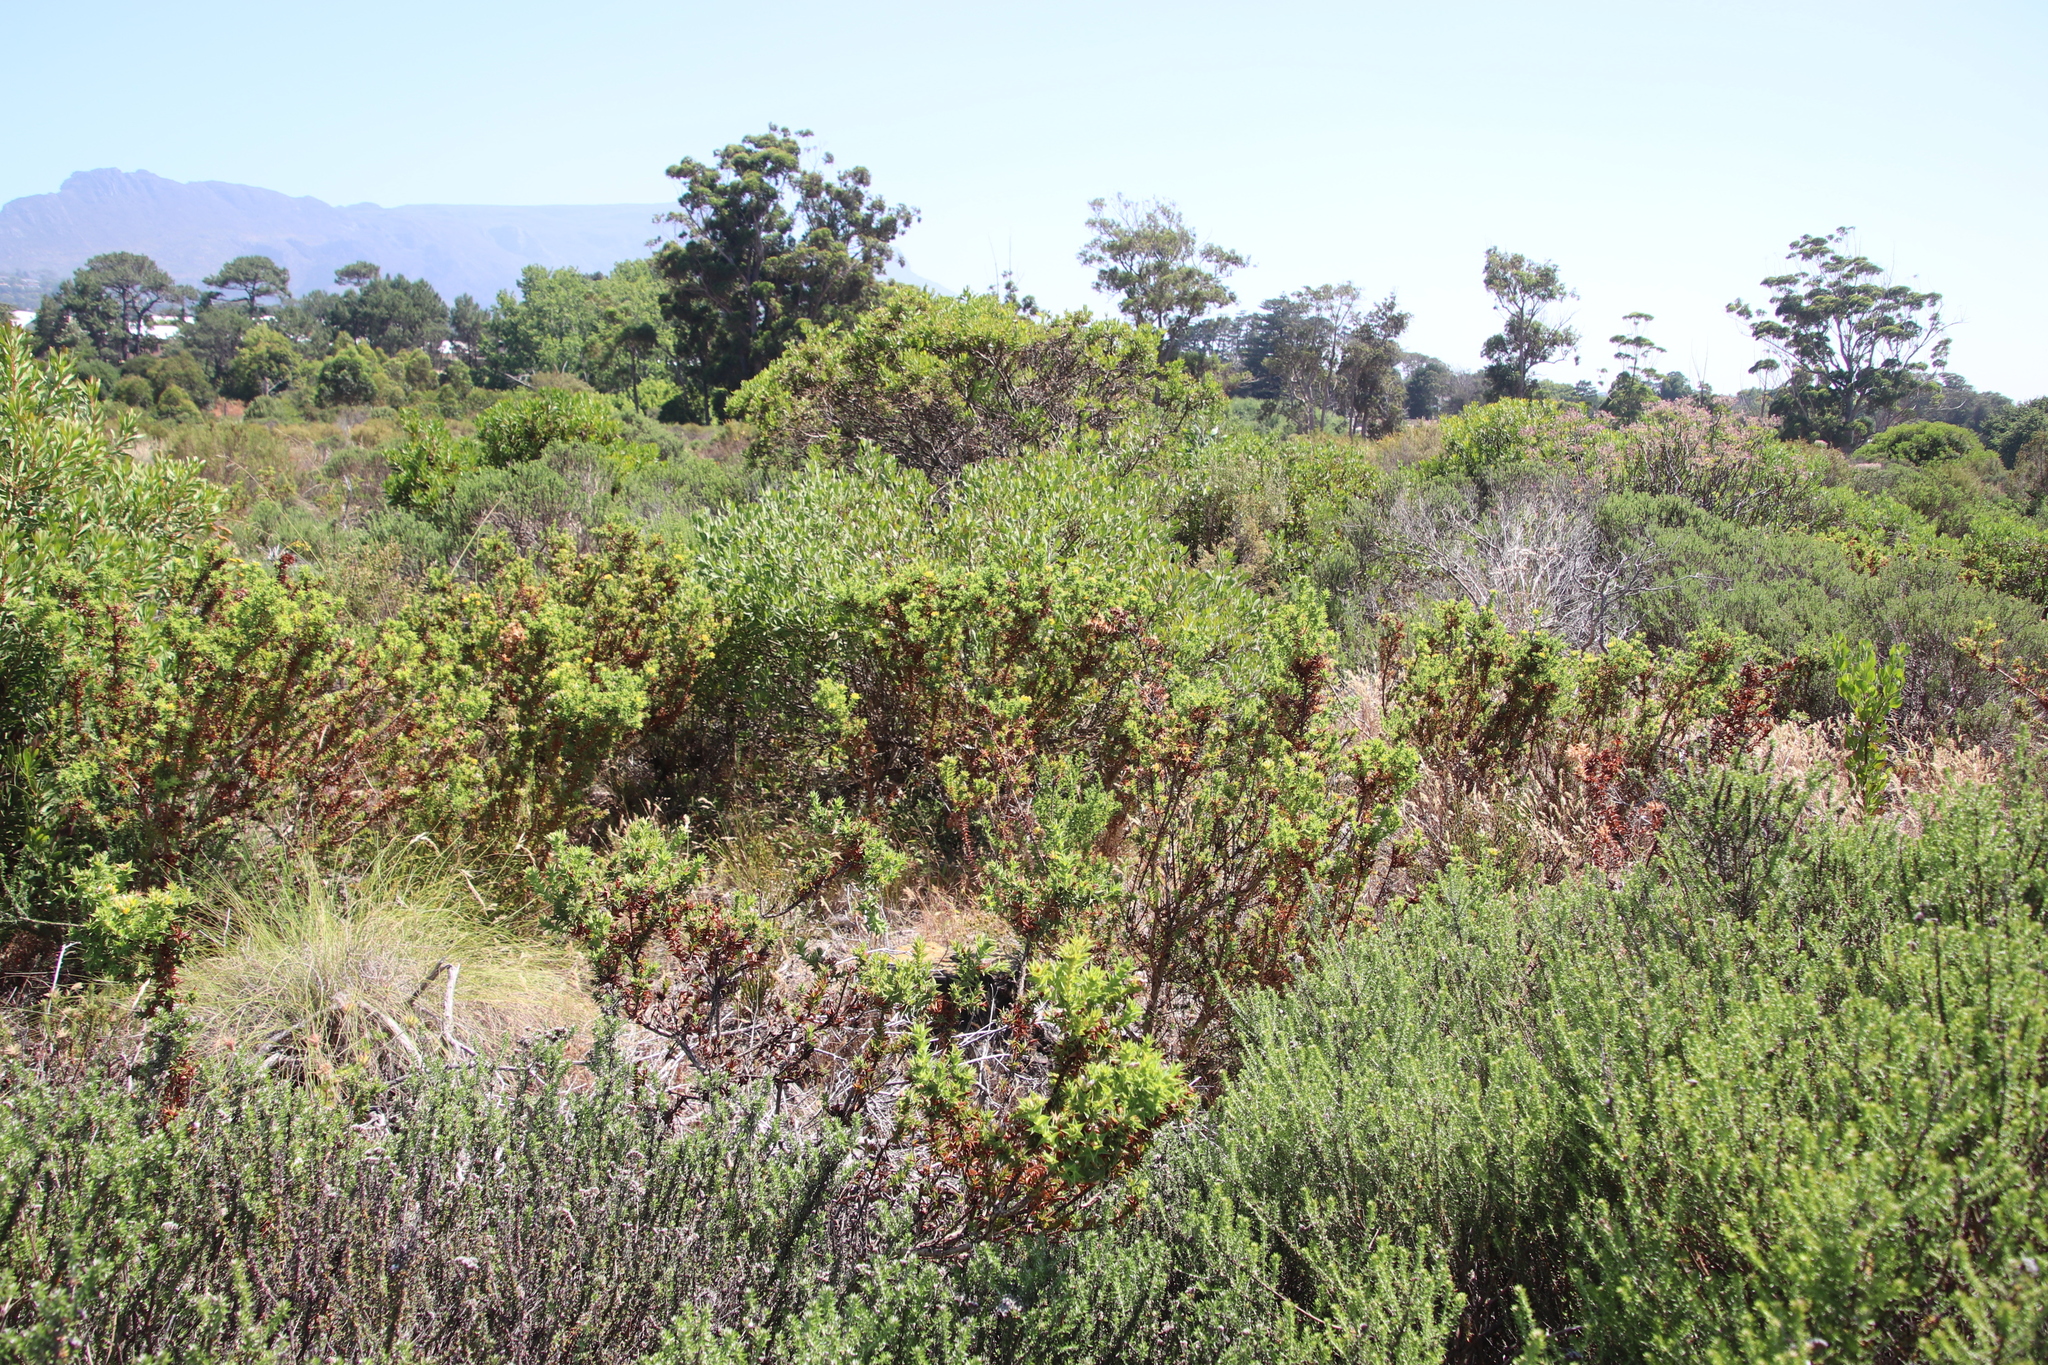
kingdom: Plantae
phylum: Tracheophyta
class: Magnoliopsida
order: Fabales
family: Fabaceae
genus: Aspalathus
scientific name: Aspalathus cordata
